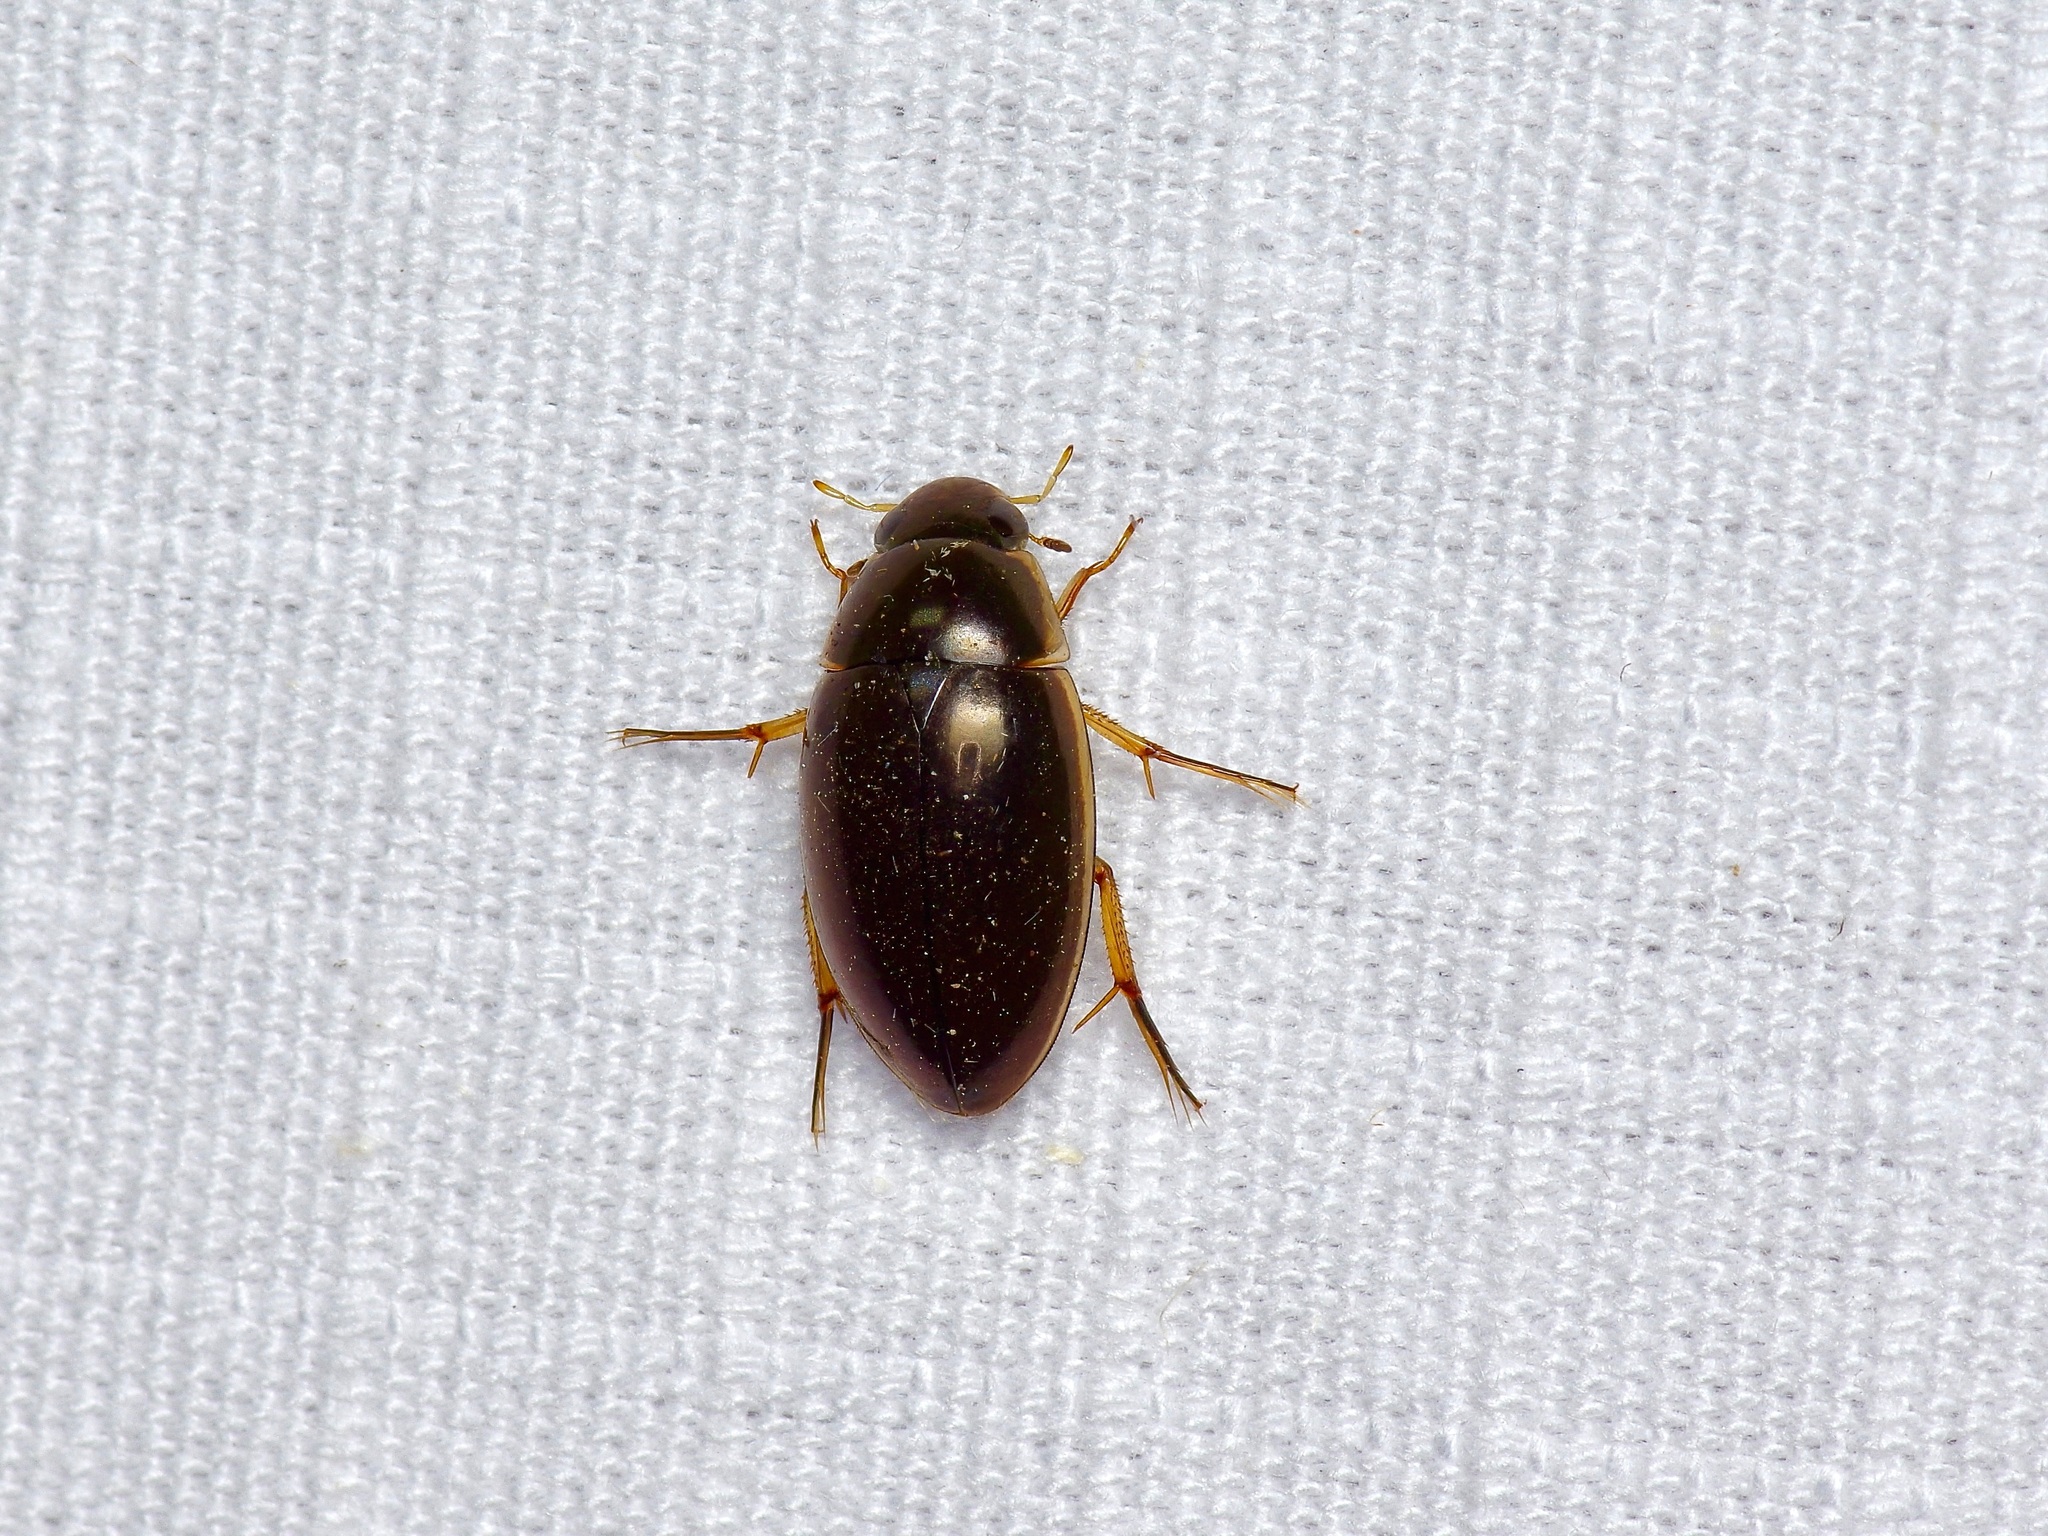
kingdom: Animalia
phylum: Arthropoda
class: Insecta
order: Coleoptera
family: Hydrophilidae
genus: Tropisternus
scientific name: Tropisternus lateralis
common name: Lateral-banded water scavenger beetle
